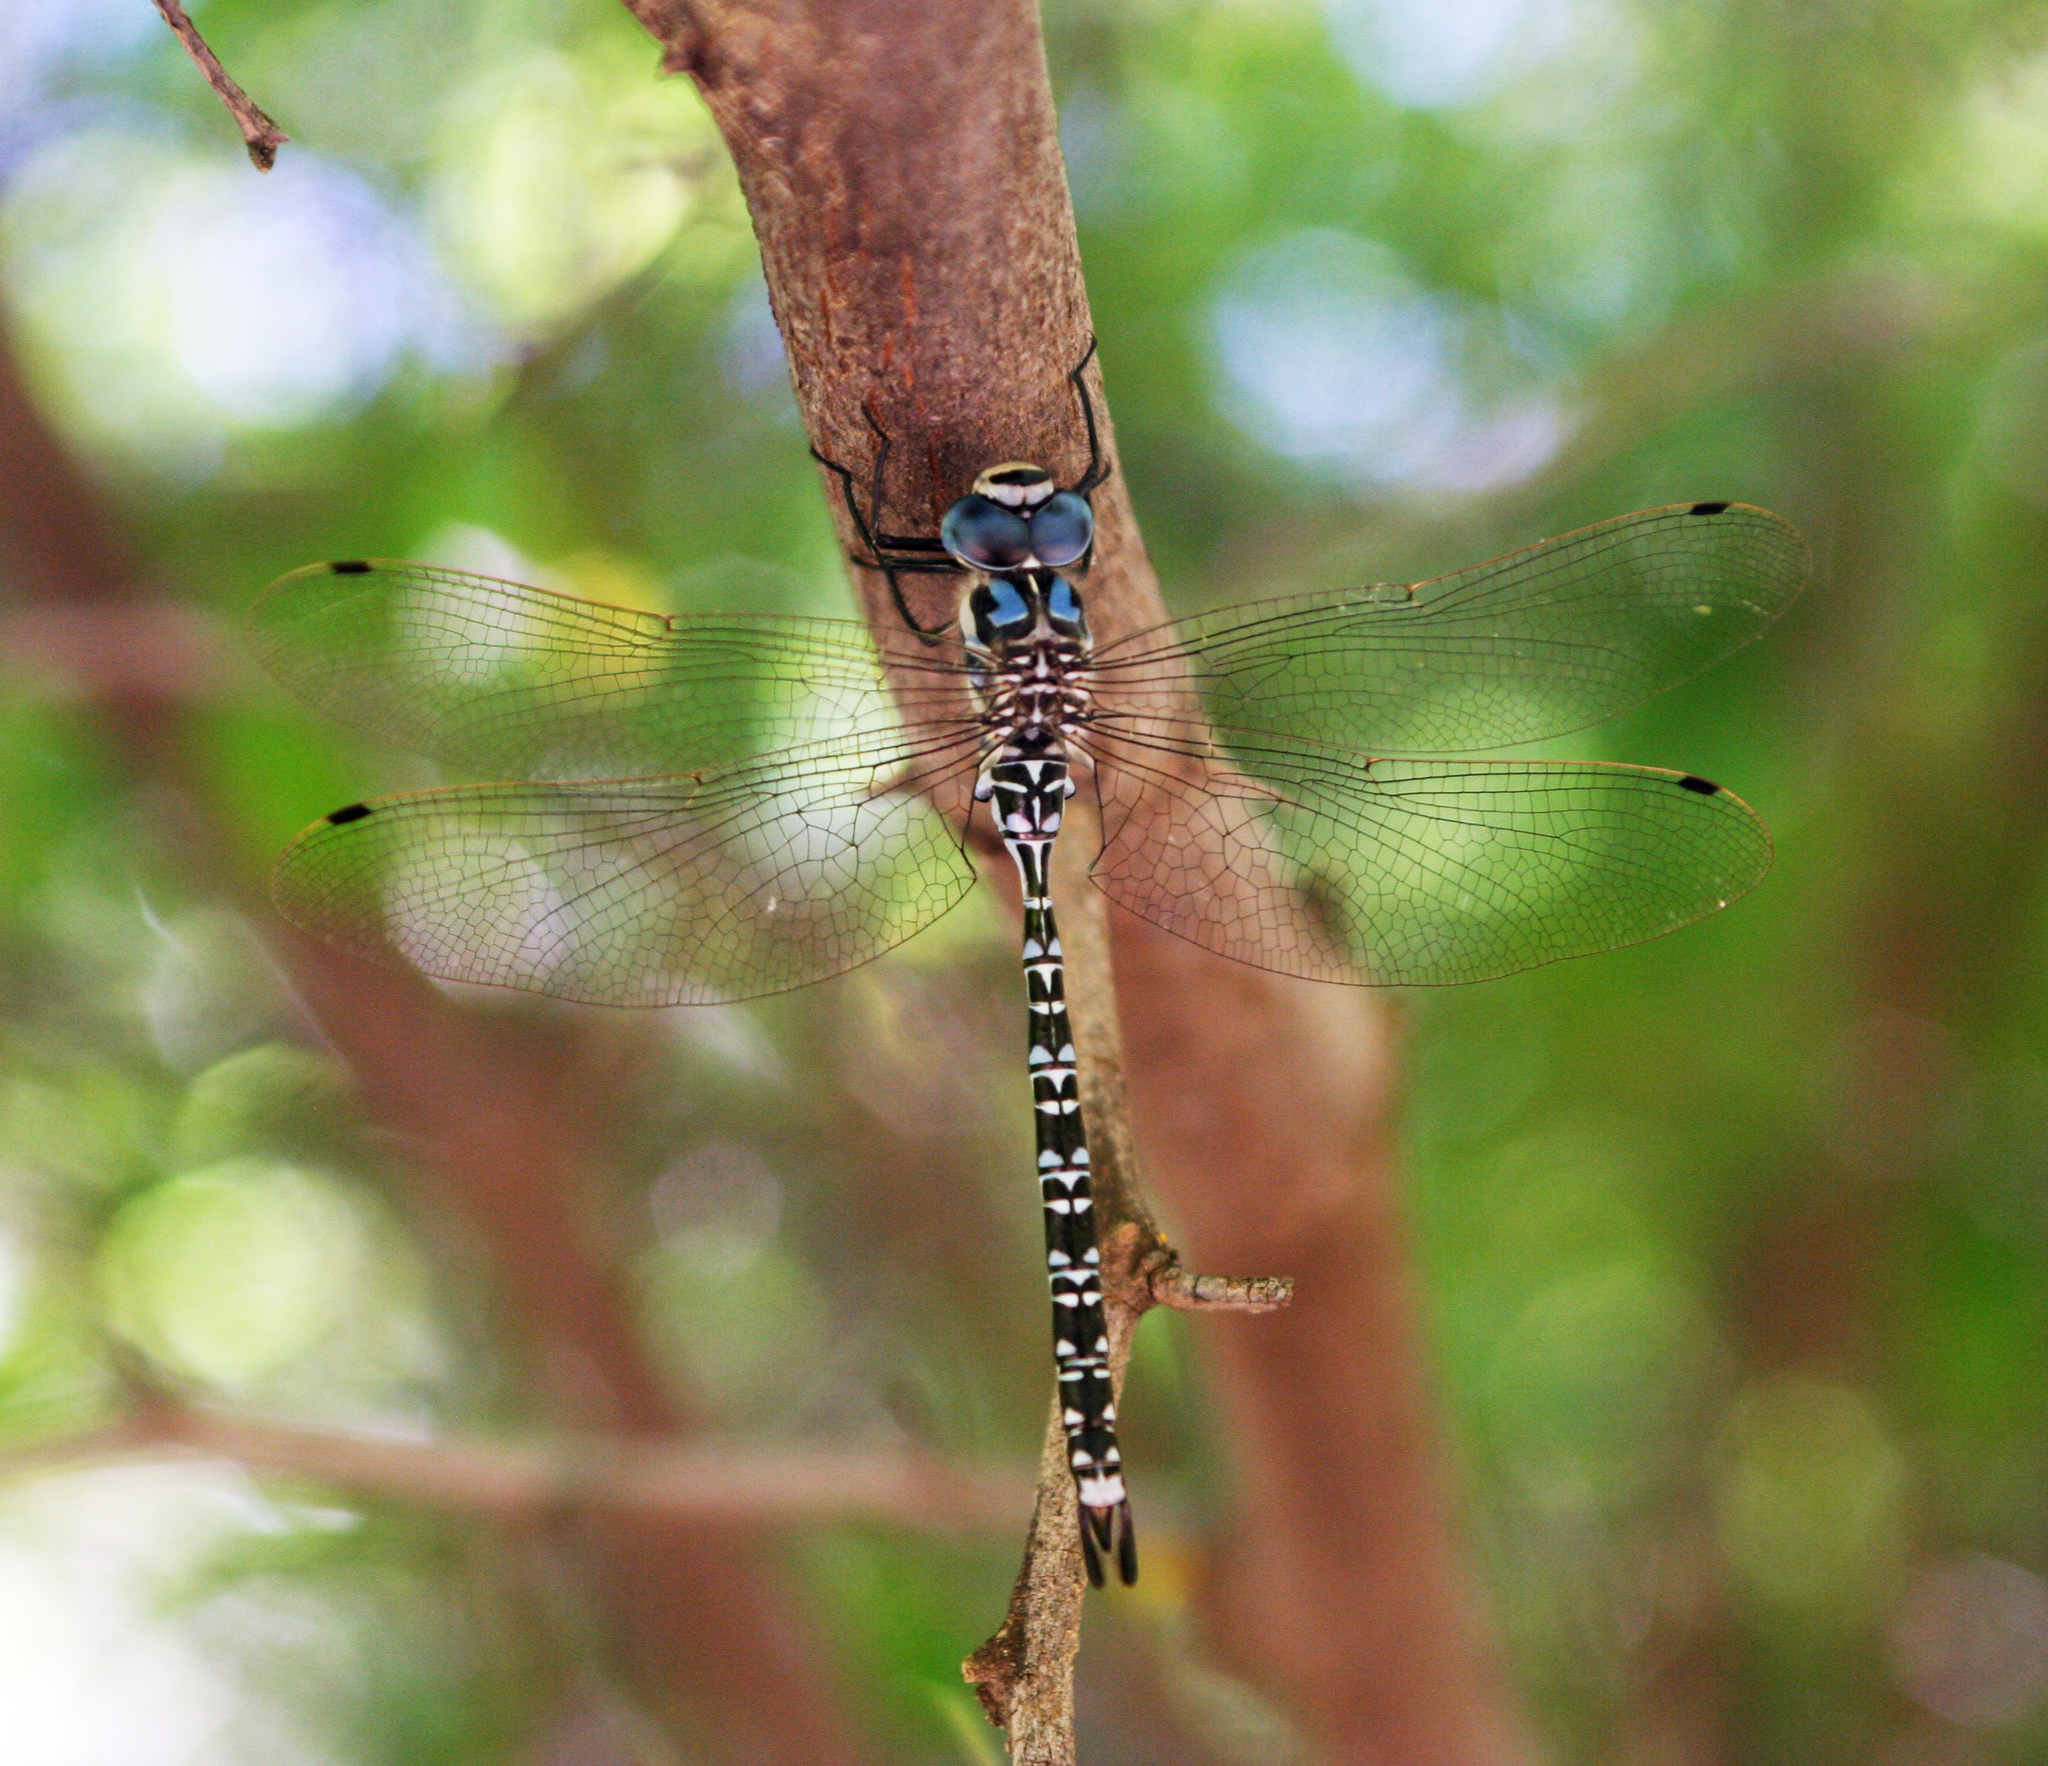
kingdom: Animalia
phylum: Arthropoda
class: Insecta
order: Odonata
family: Aeshnidae
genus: Caliaeschna
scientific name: Caliaeschna microstigma
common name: Eastern spectre
